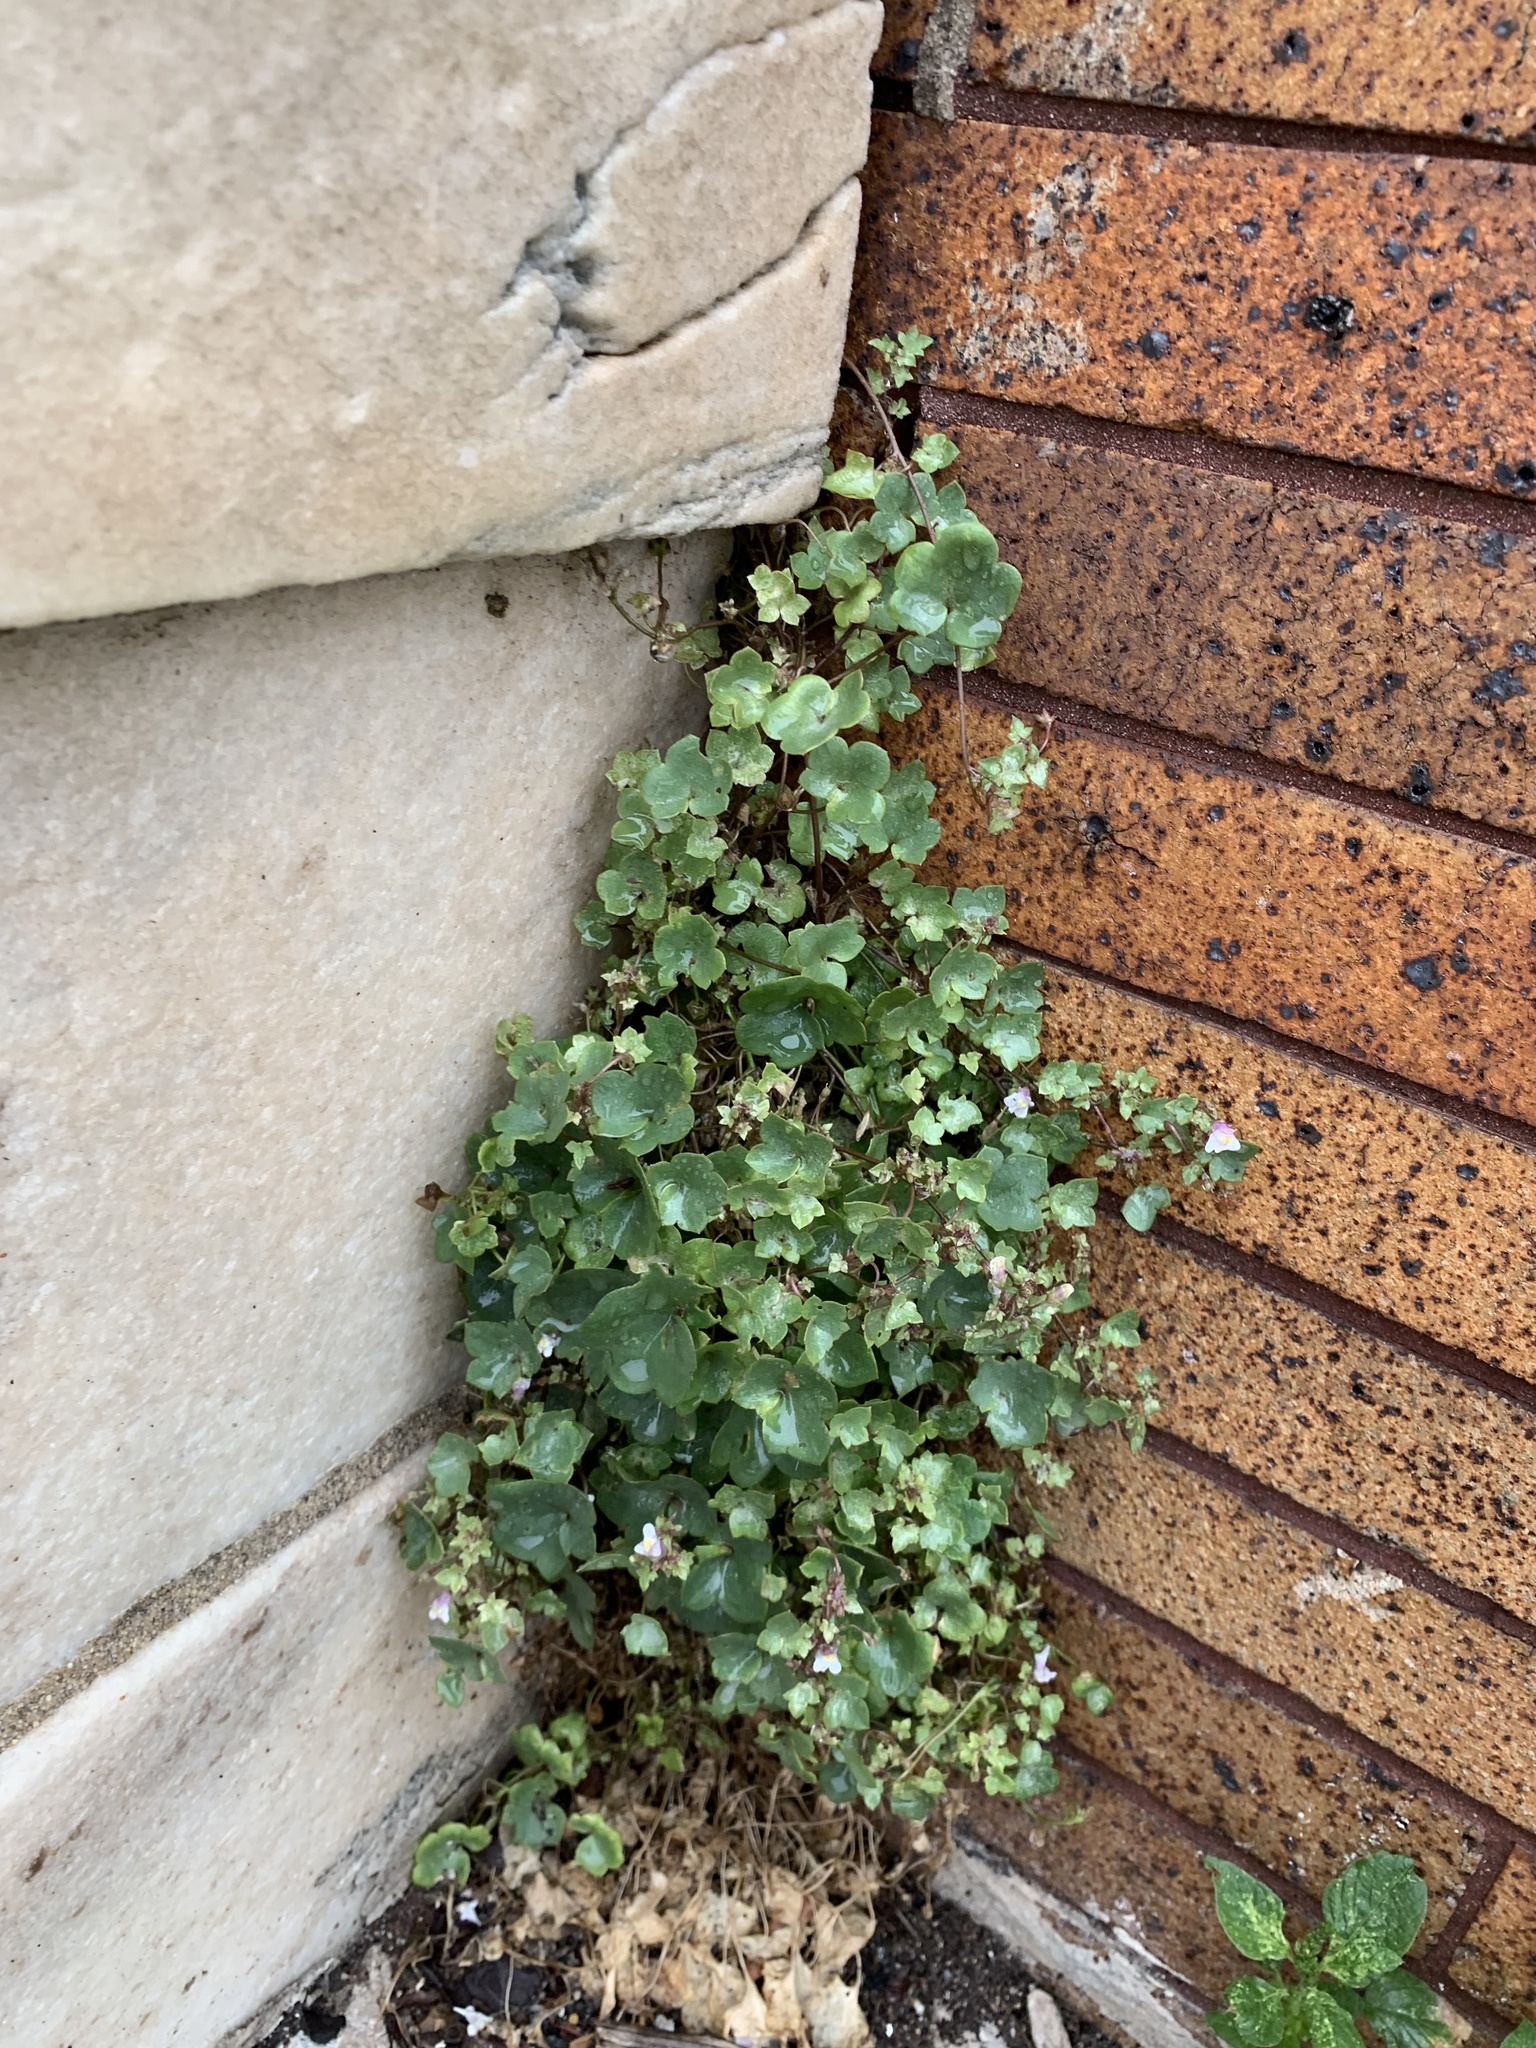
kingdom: Plantae
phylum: Tracheophyta
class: Magnoliopsida
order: Lamiales
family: Plantaginaceae
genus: Cymbalaria
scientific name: Cymbalaria muralis
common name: Ivy-leaved toadflax
